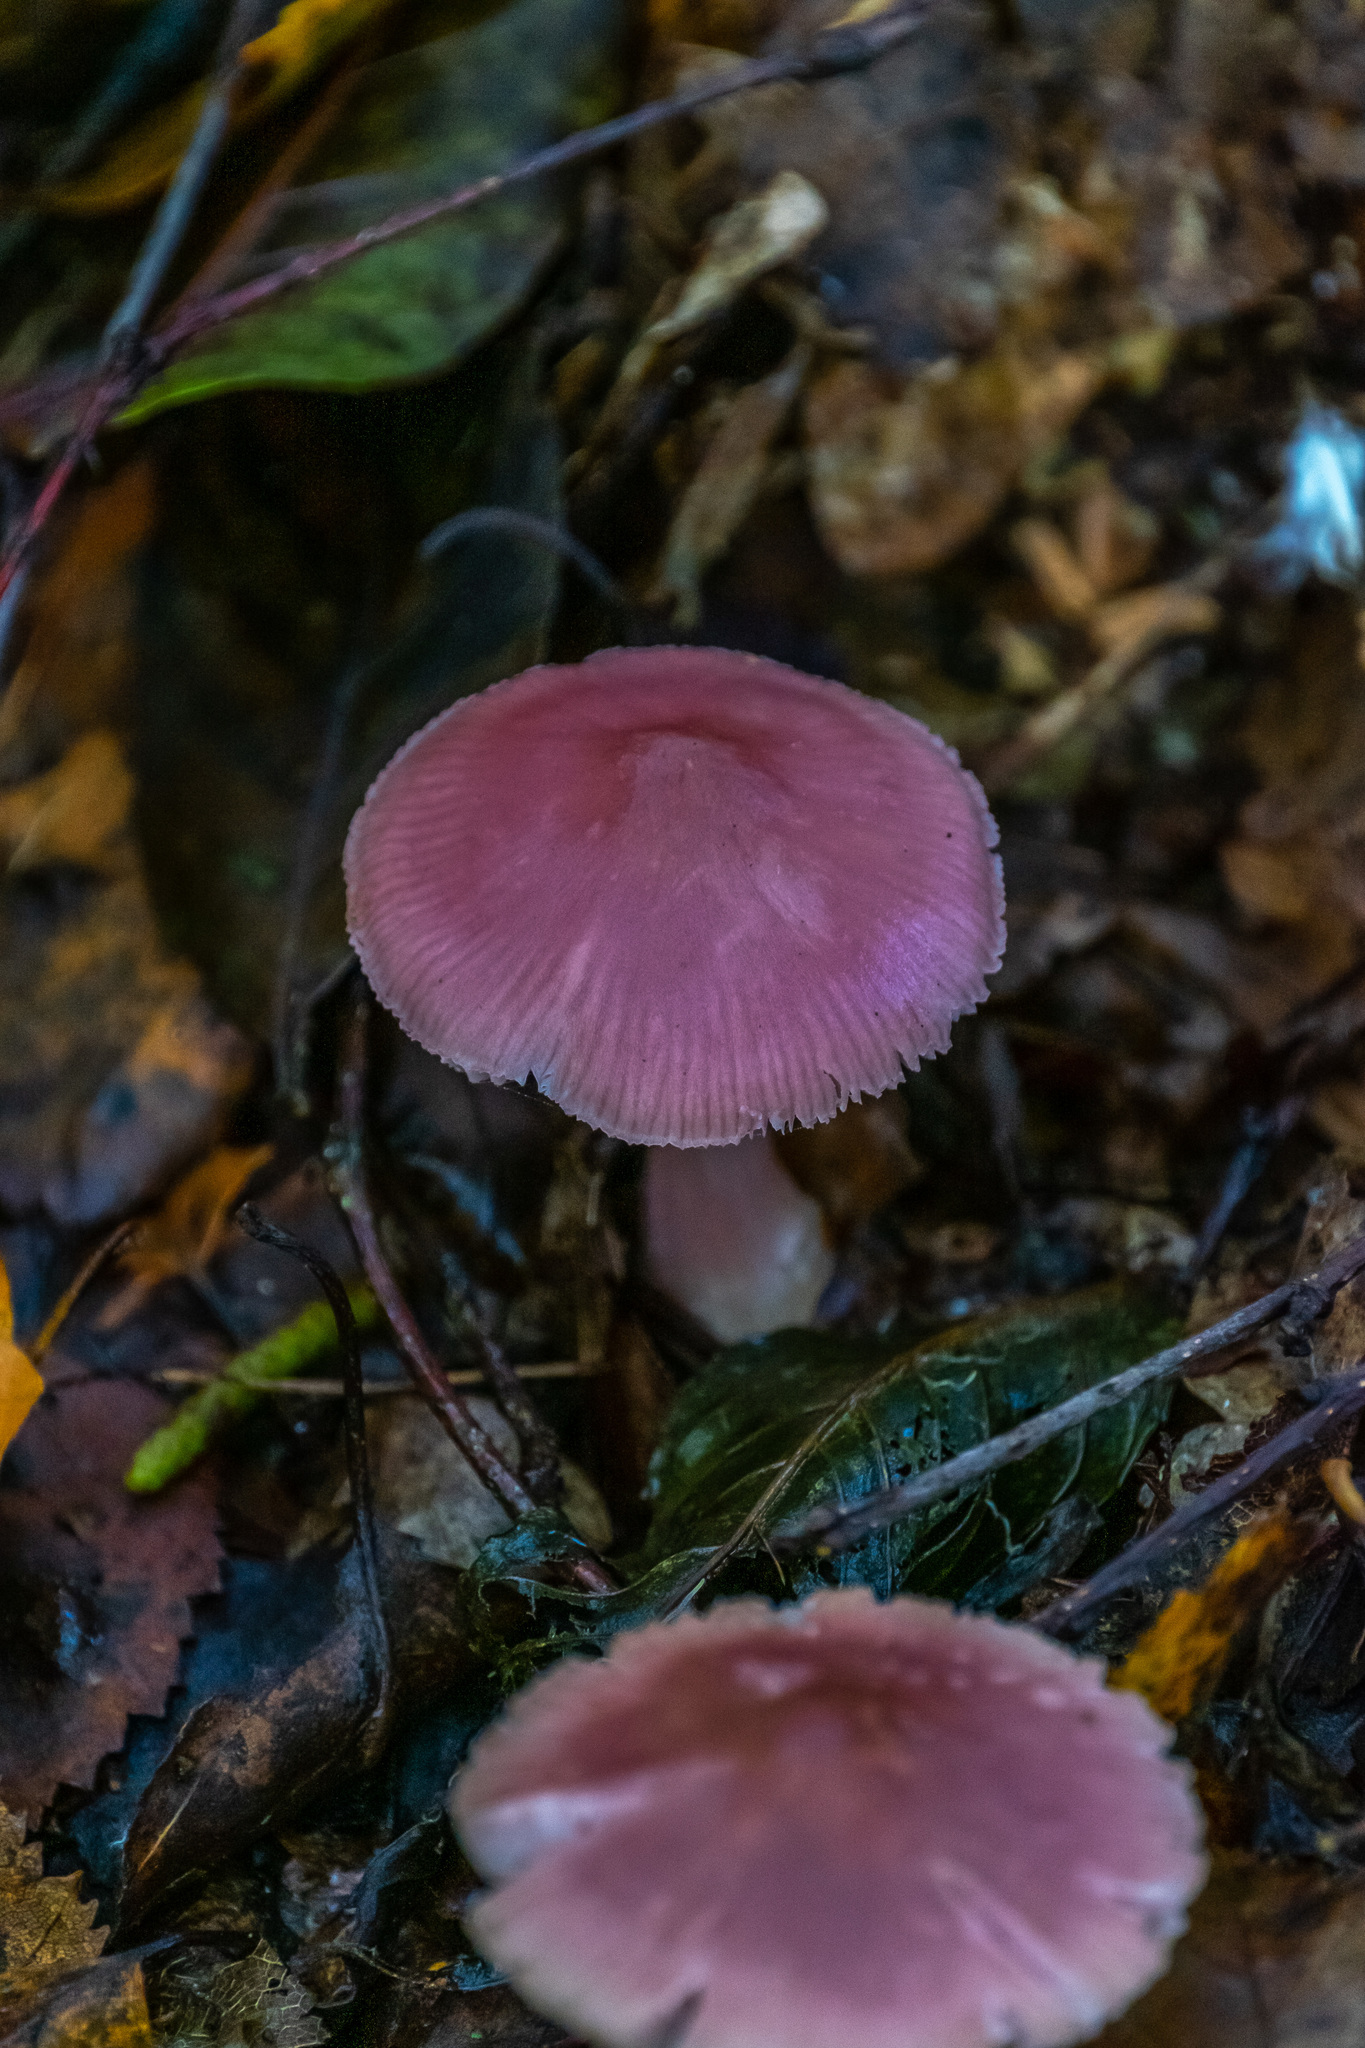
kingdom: Fungi
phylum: Basidiomycota
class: Agaricomycetes
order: Agaricales
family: Mycenaceae
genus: Mycena
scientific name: Mycena rosea
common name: Rosy bonnet
